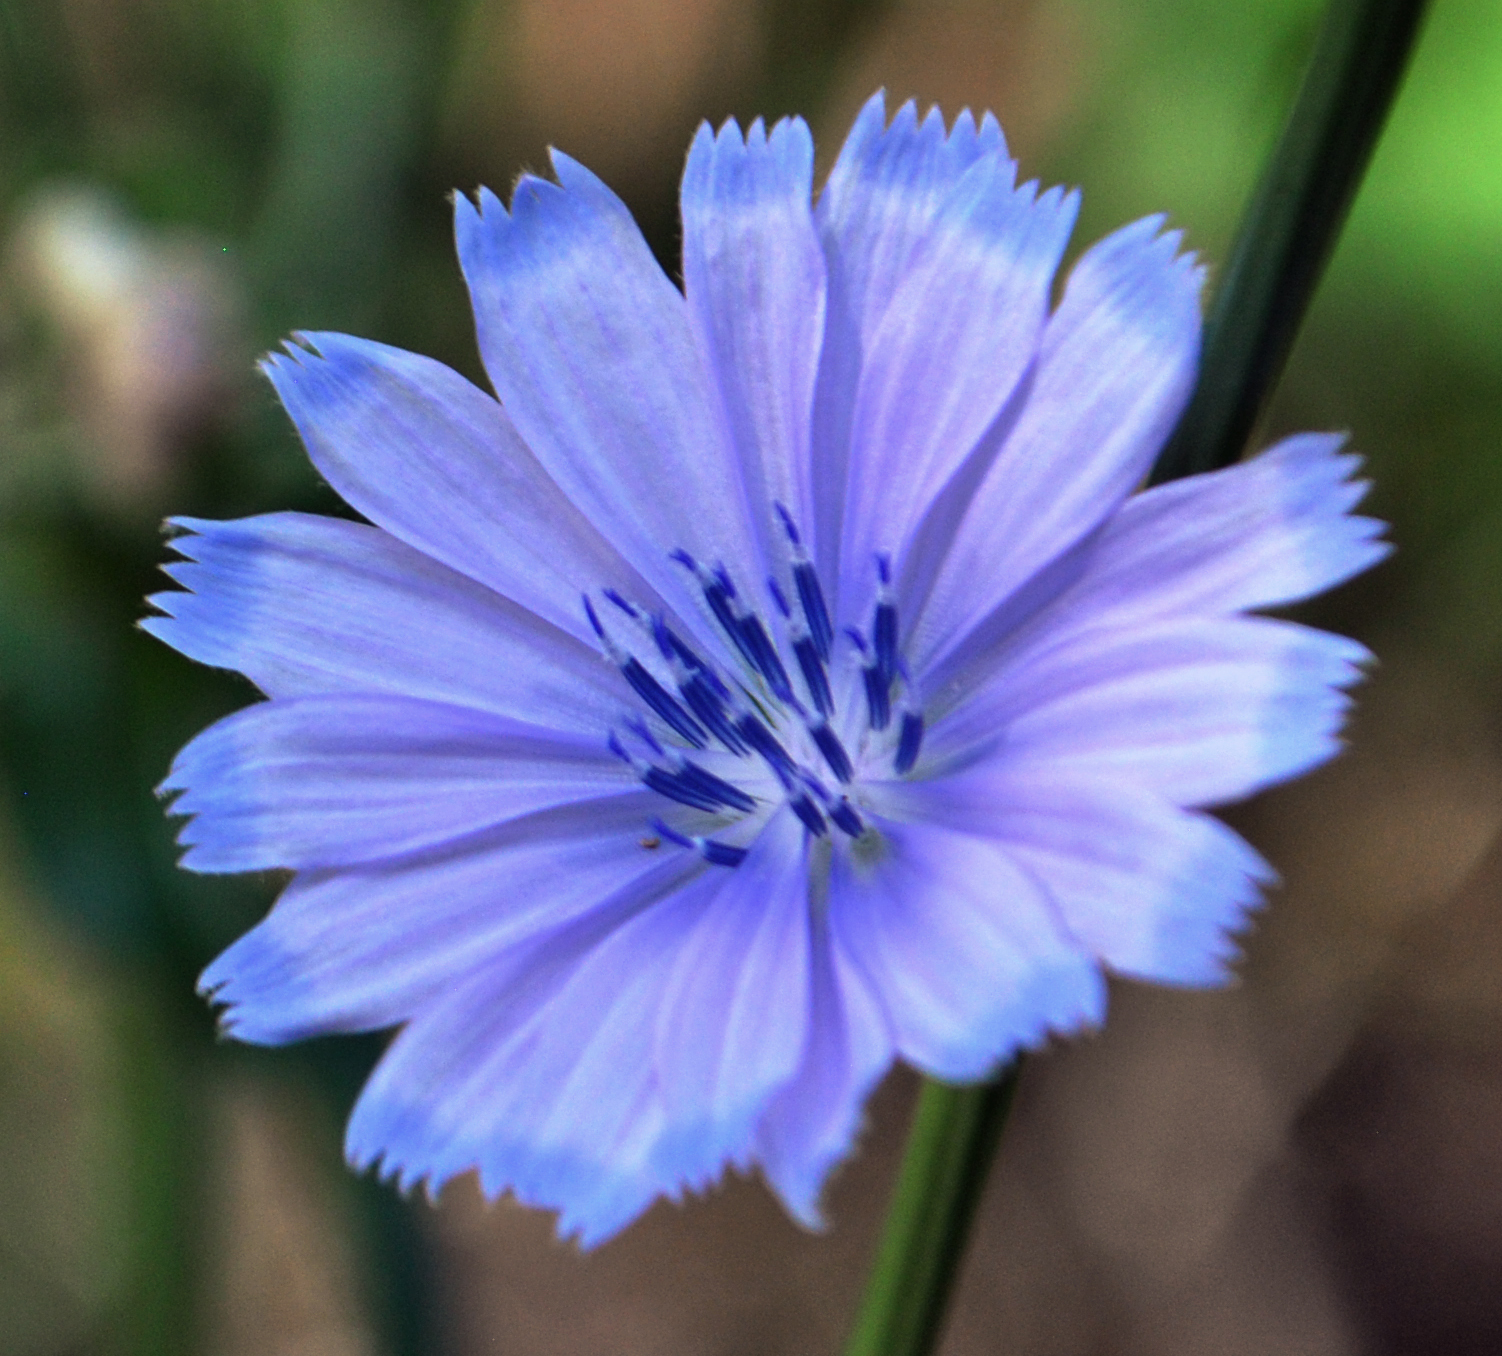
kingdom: Plantae
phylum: Tracheophyta
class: Magnoliopsida
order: Asterales
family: Asteraceae
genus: Cichorium
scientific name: Cichorium intybus
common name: Chicory
